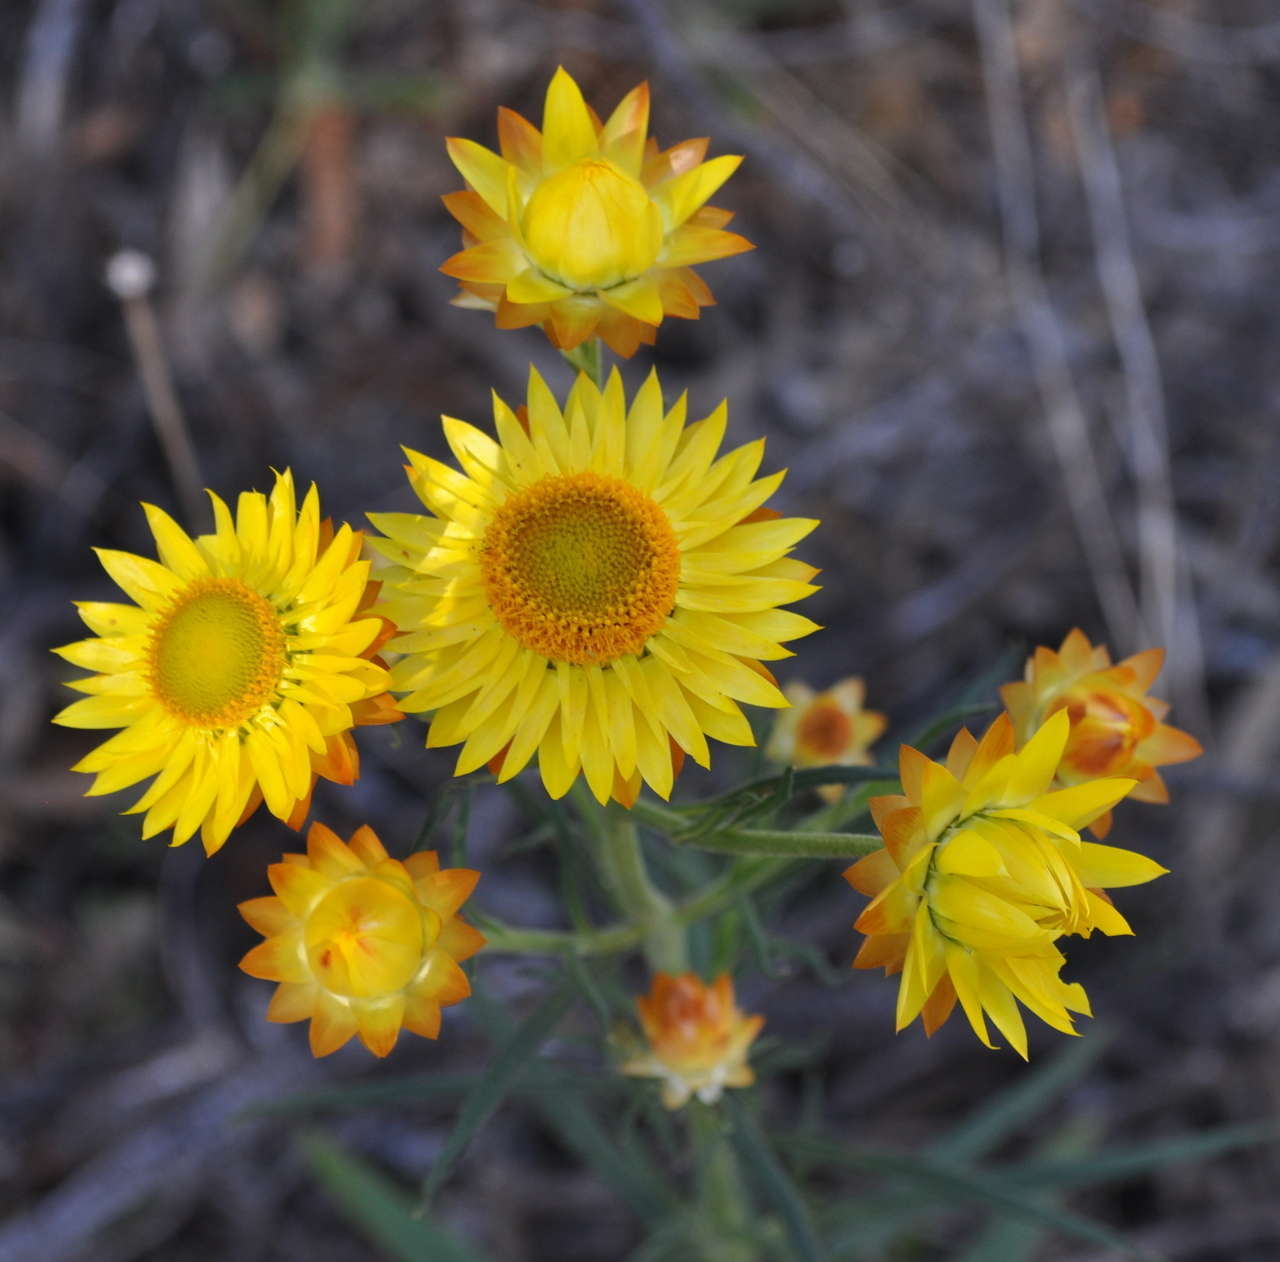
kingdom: Plantae
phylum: Tracheophyta
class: Magnoliopsida
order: Asterales
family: Asteraceae
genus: Xerochrysum
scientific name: Xerochrysum viscosum
